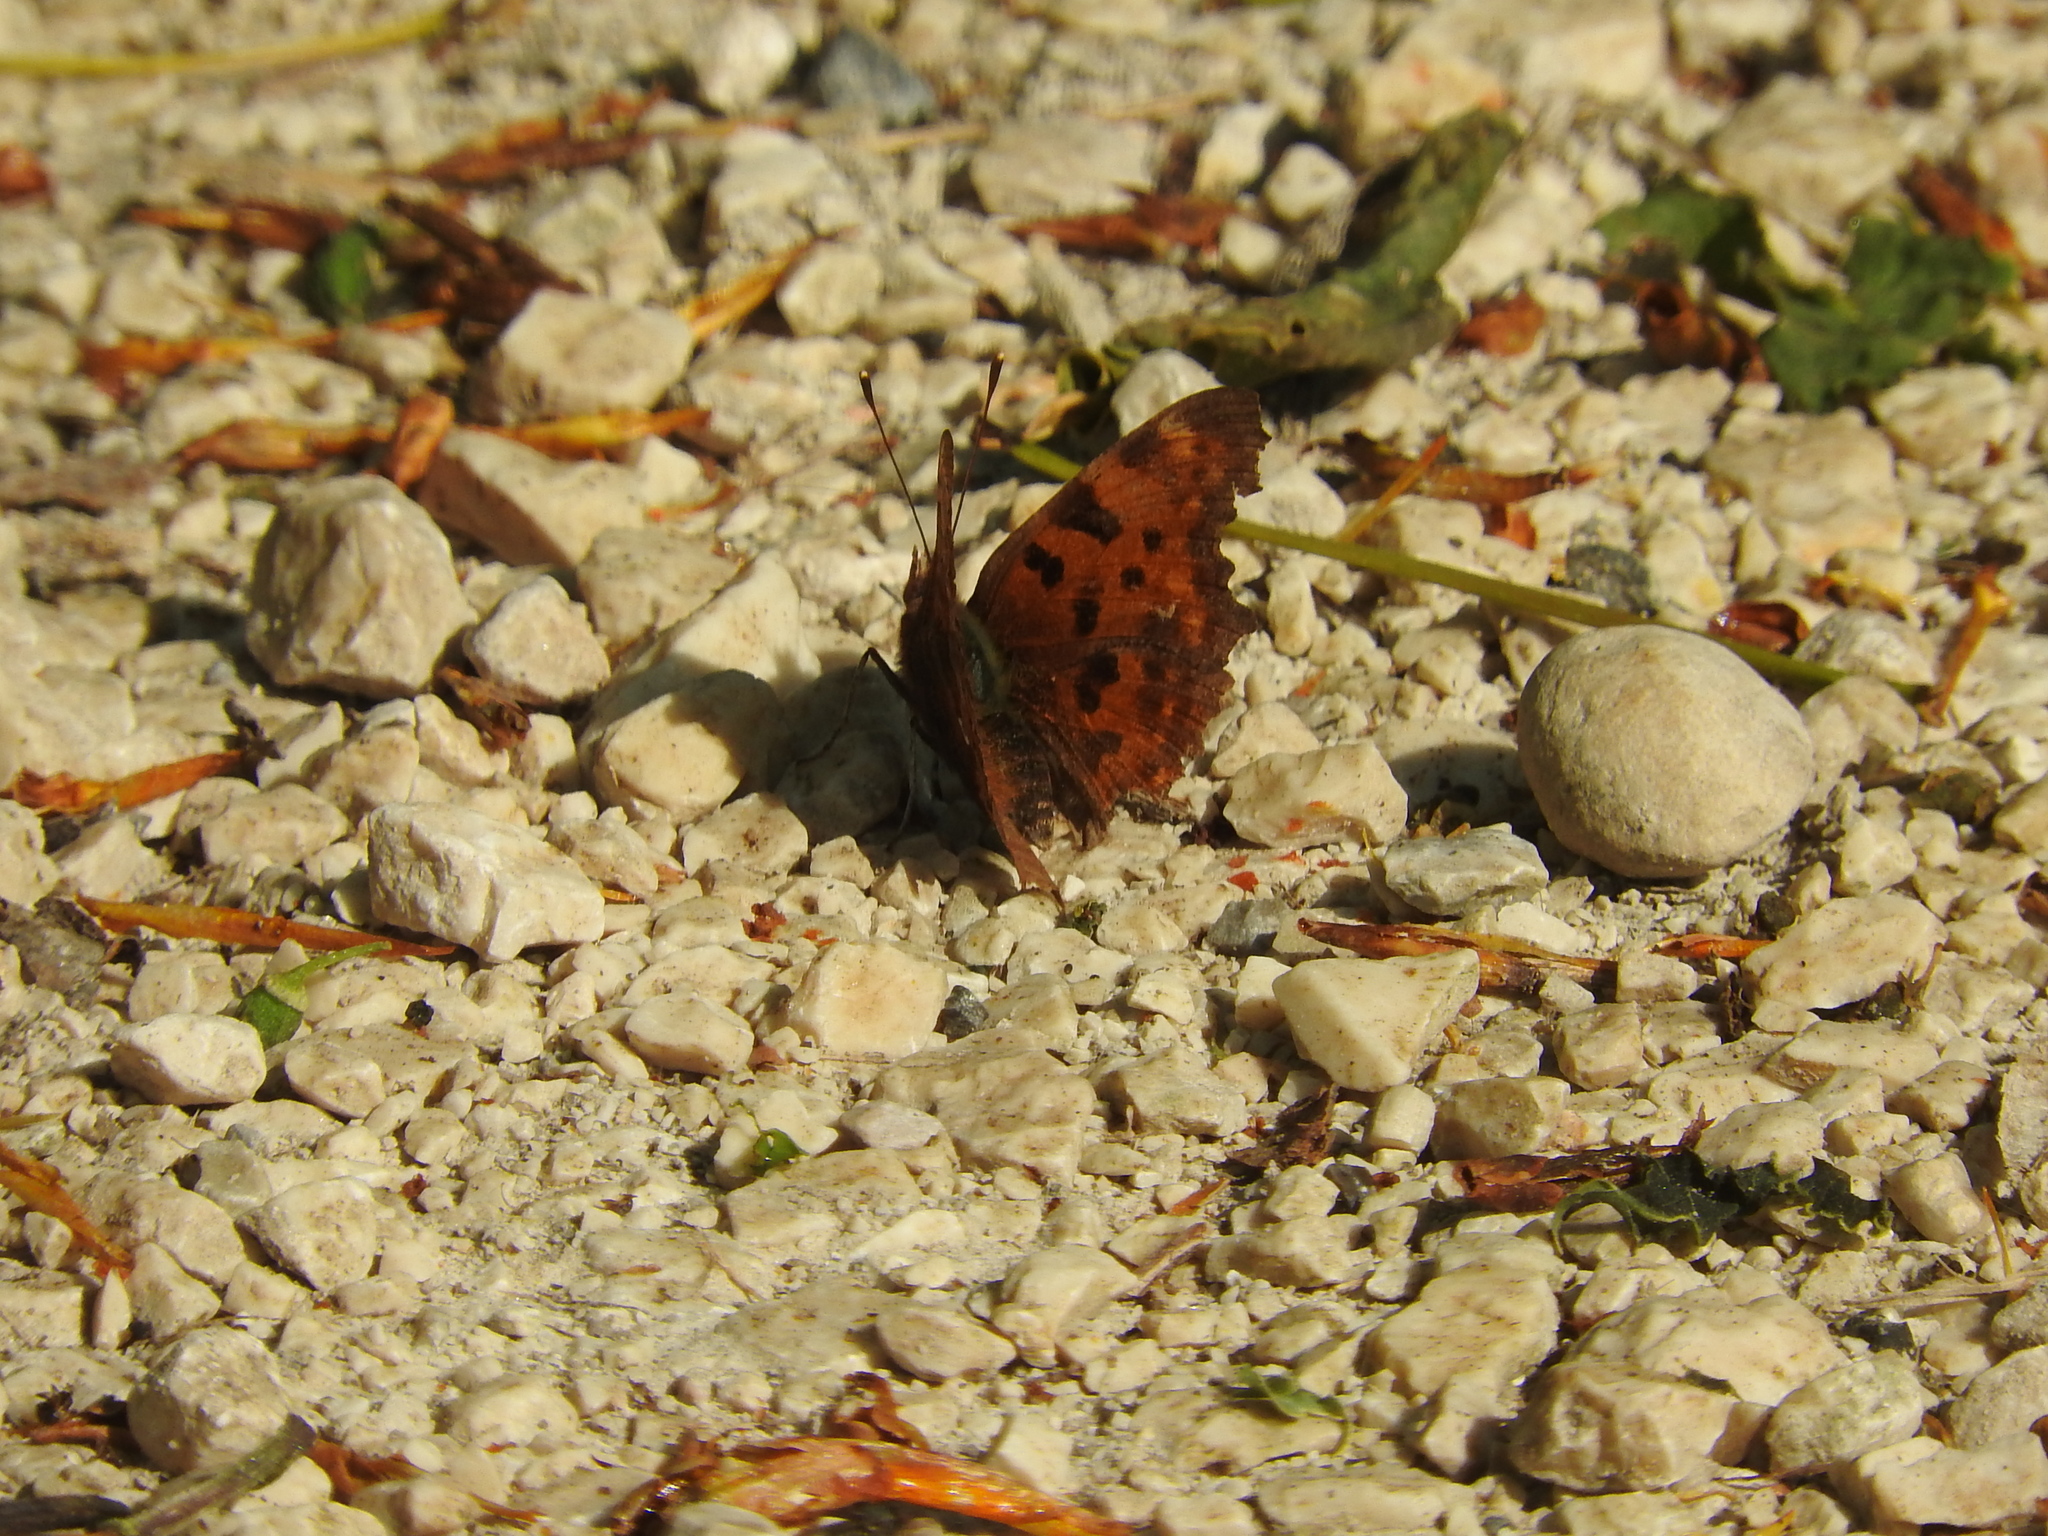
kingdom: Animalia
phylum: Arthropoda
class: Insecta
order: Lepidoptera
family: Nymphalidae
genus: Polygonia
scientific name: Polygonia c-album
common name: Comma
